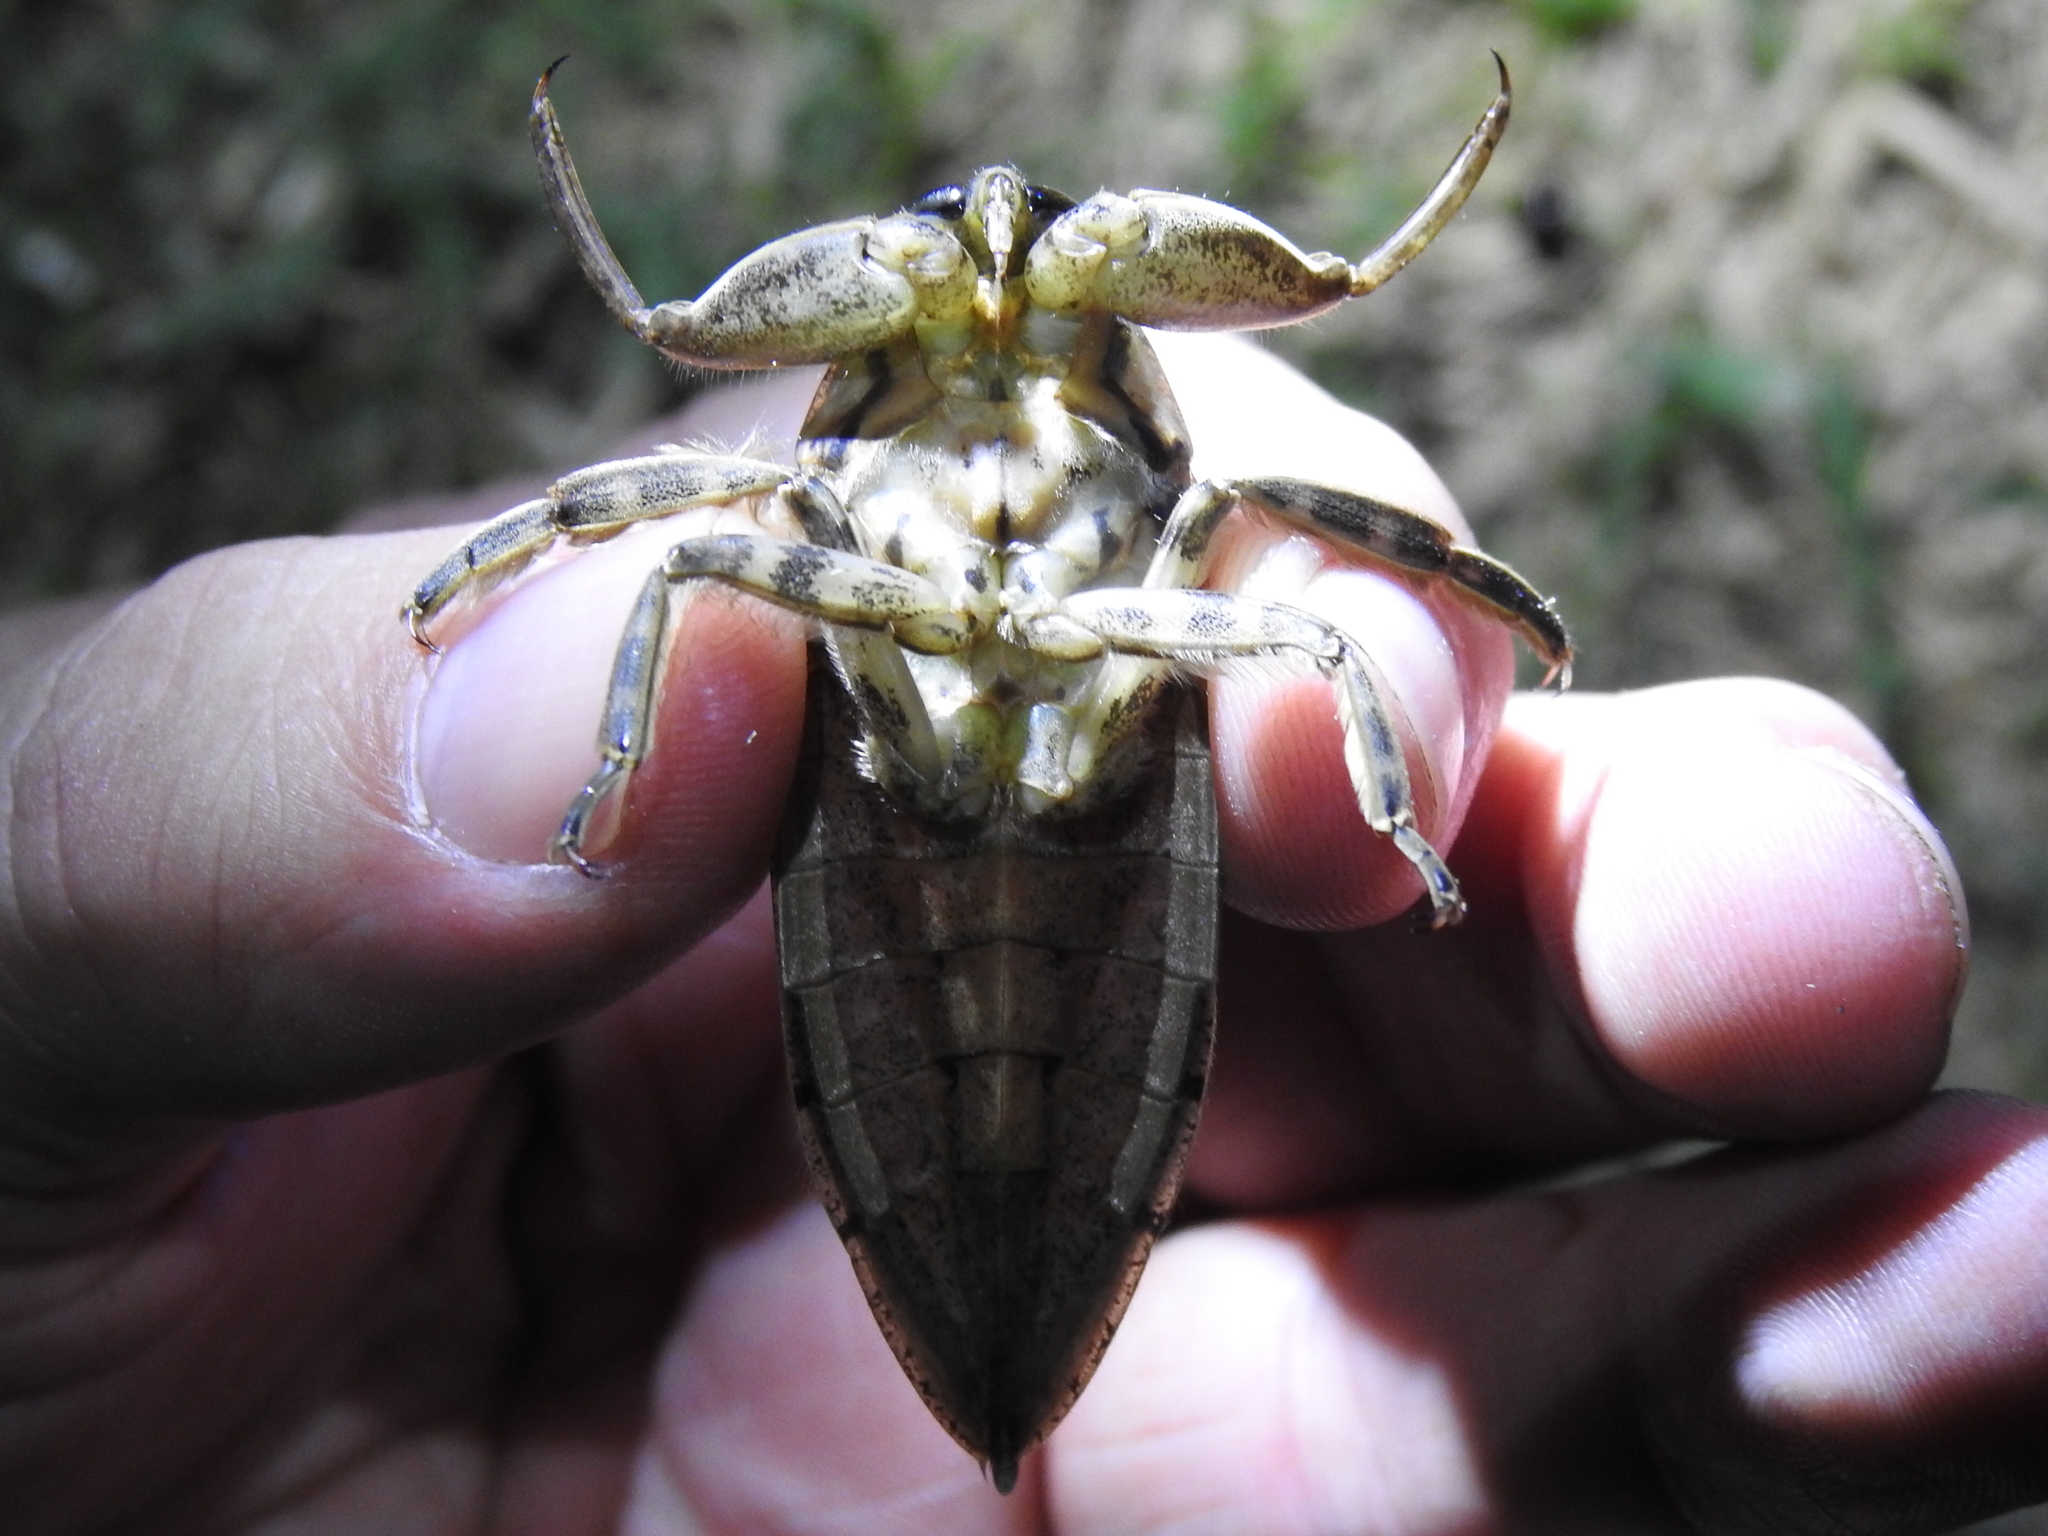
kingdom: Animalia
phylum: Arthropoda
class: Insecta
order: Hemiptera
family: Belostomatidae
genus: Lethocerus
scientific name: Lethocerus uhleri
